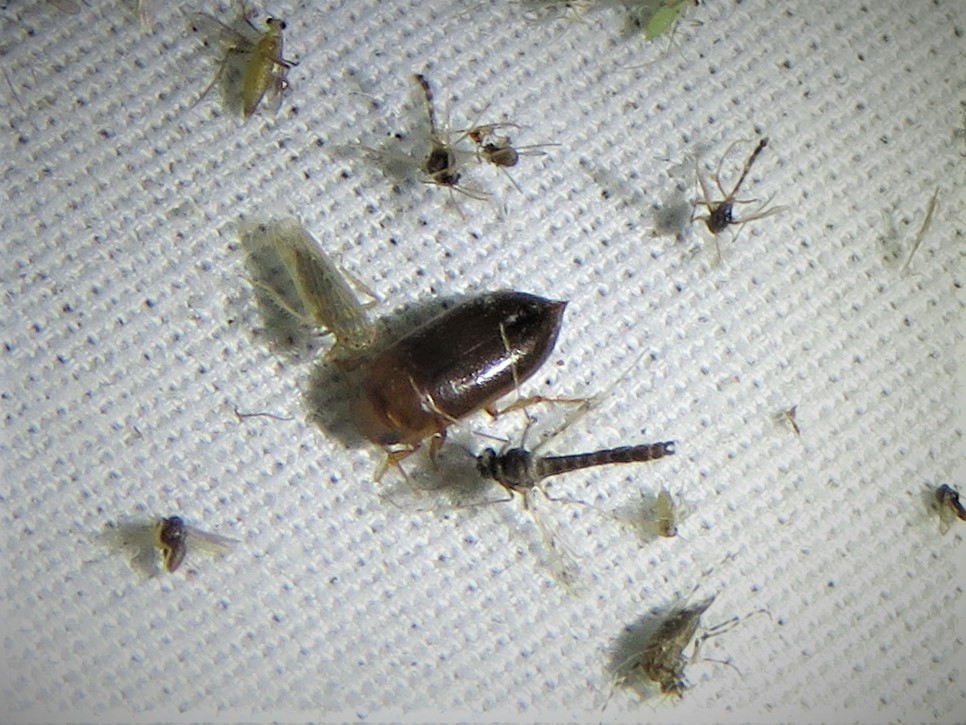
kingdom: Animalia
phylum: Arthropoda
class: Insecta
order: Coleoptera
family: Dytiscidae
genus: Celina
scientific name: Celina
